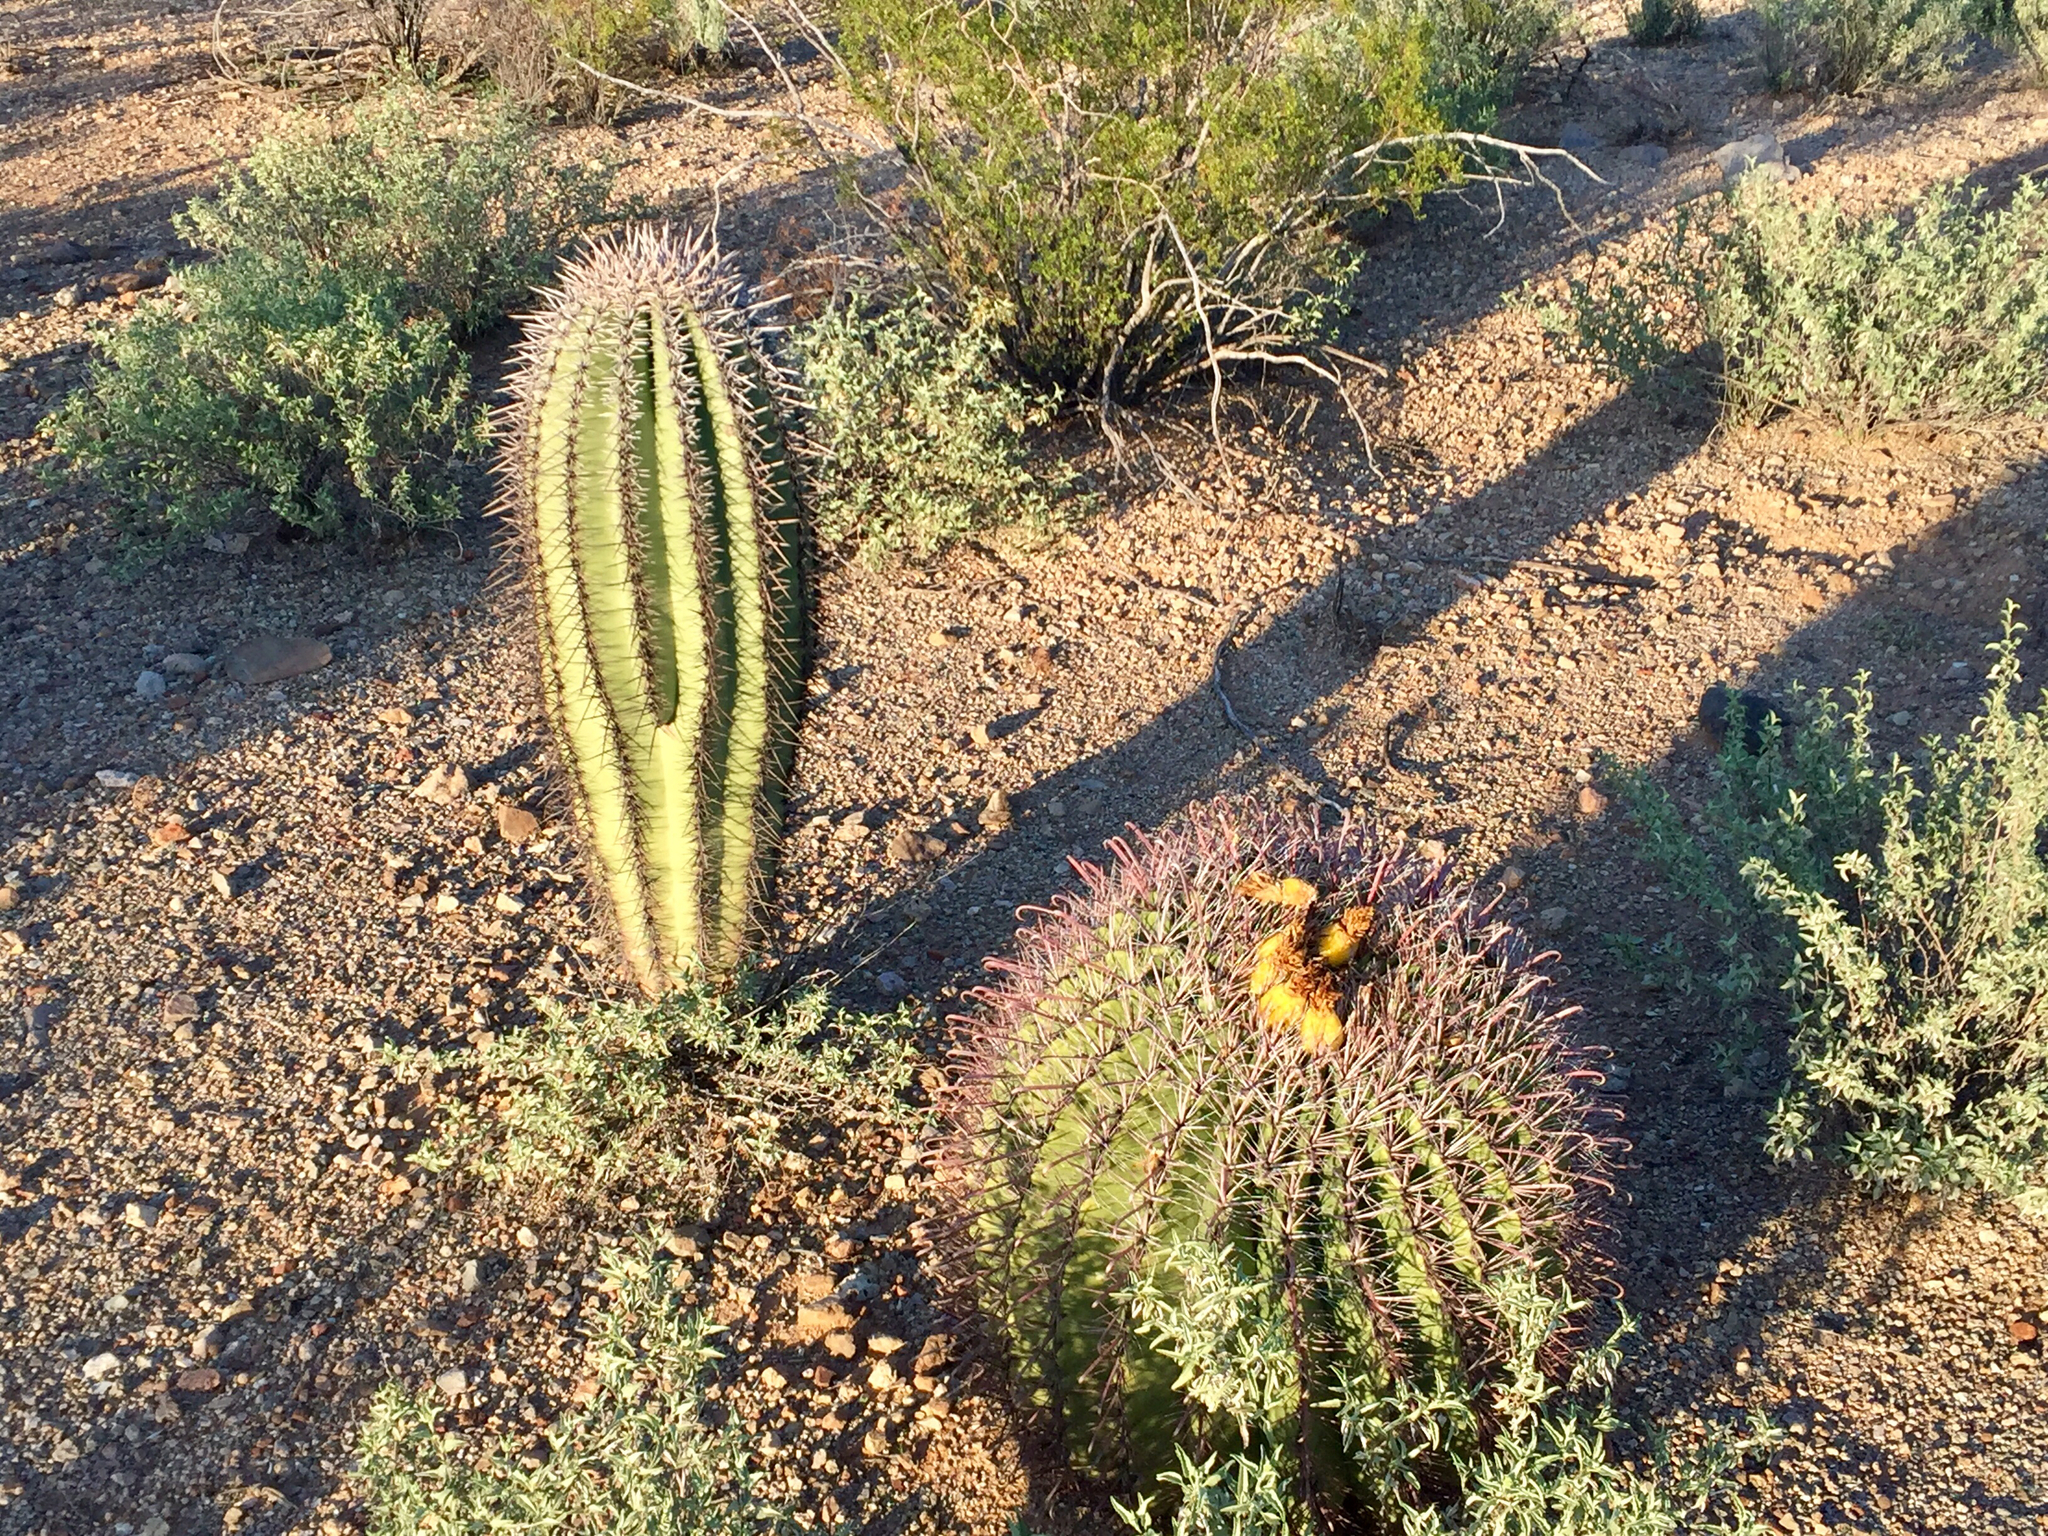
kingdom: Plantae
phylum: Tracheophyta
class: Magnoliopsida
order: Caryophyllales
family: Cactaceae
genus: Carnegiea
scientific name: Carnegiea gigantea
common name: Saguaro
